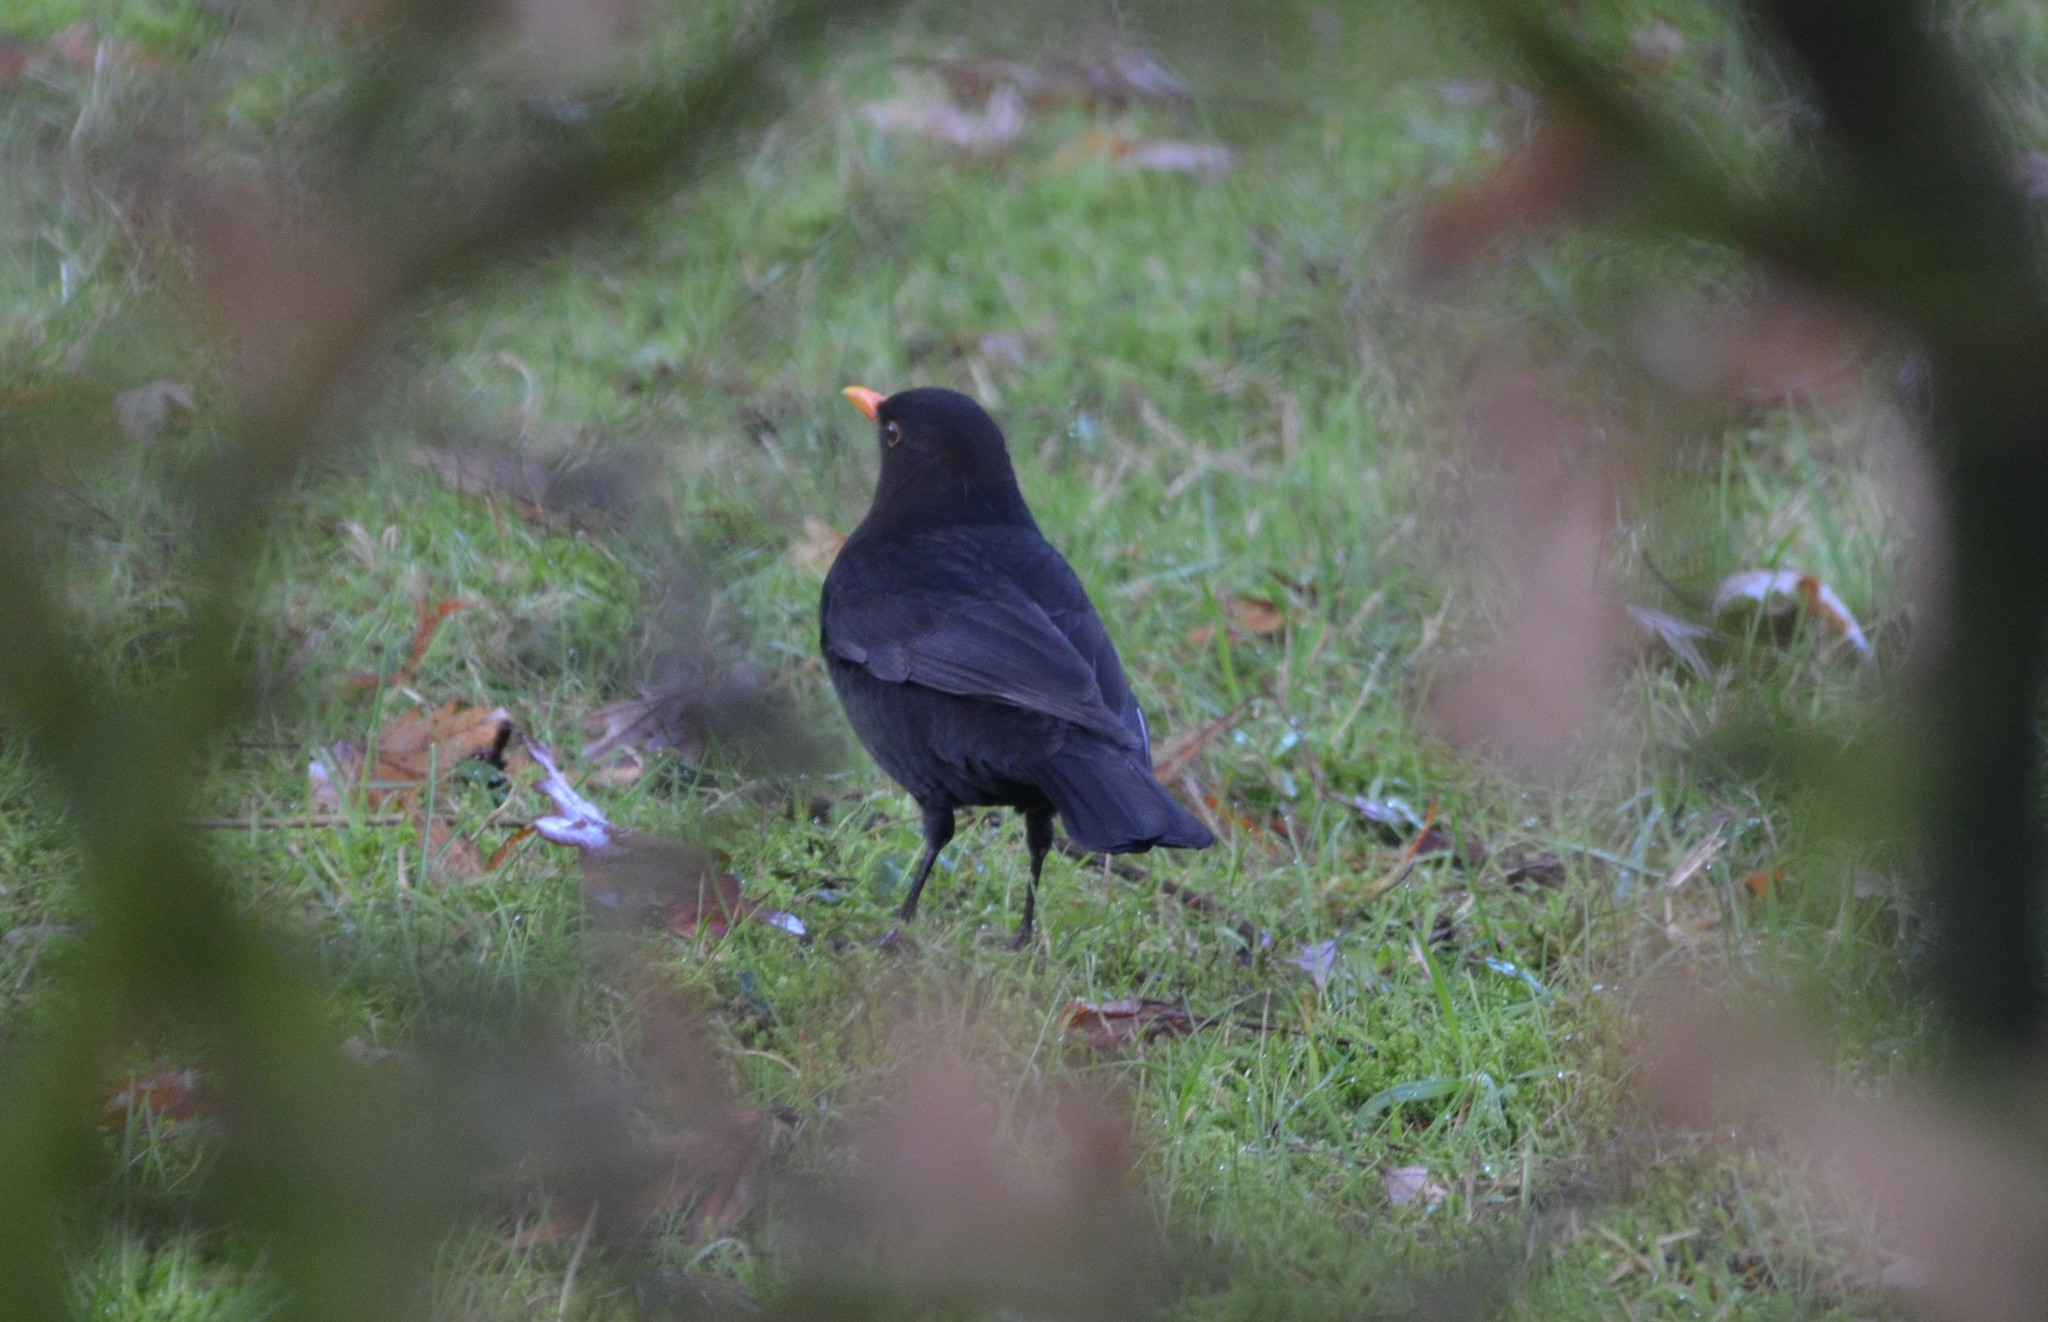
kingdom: Animalia
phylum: Chordata
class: Aves
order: Passeriformes
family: Turdidae
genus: Turdus
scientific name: Turdus merula
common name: Common blackbird
